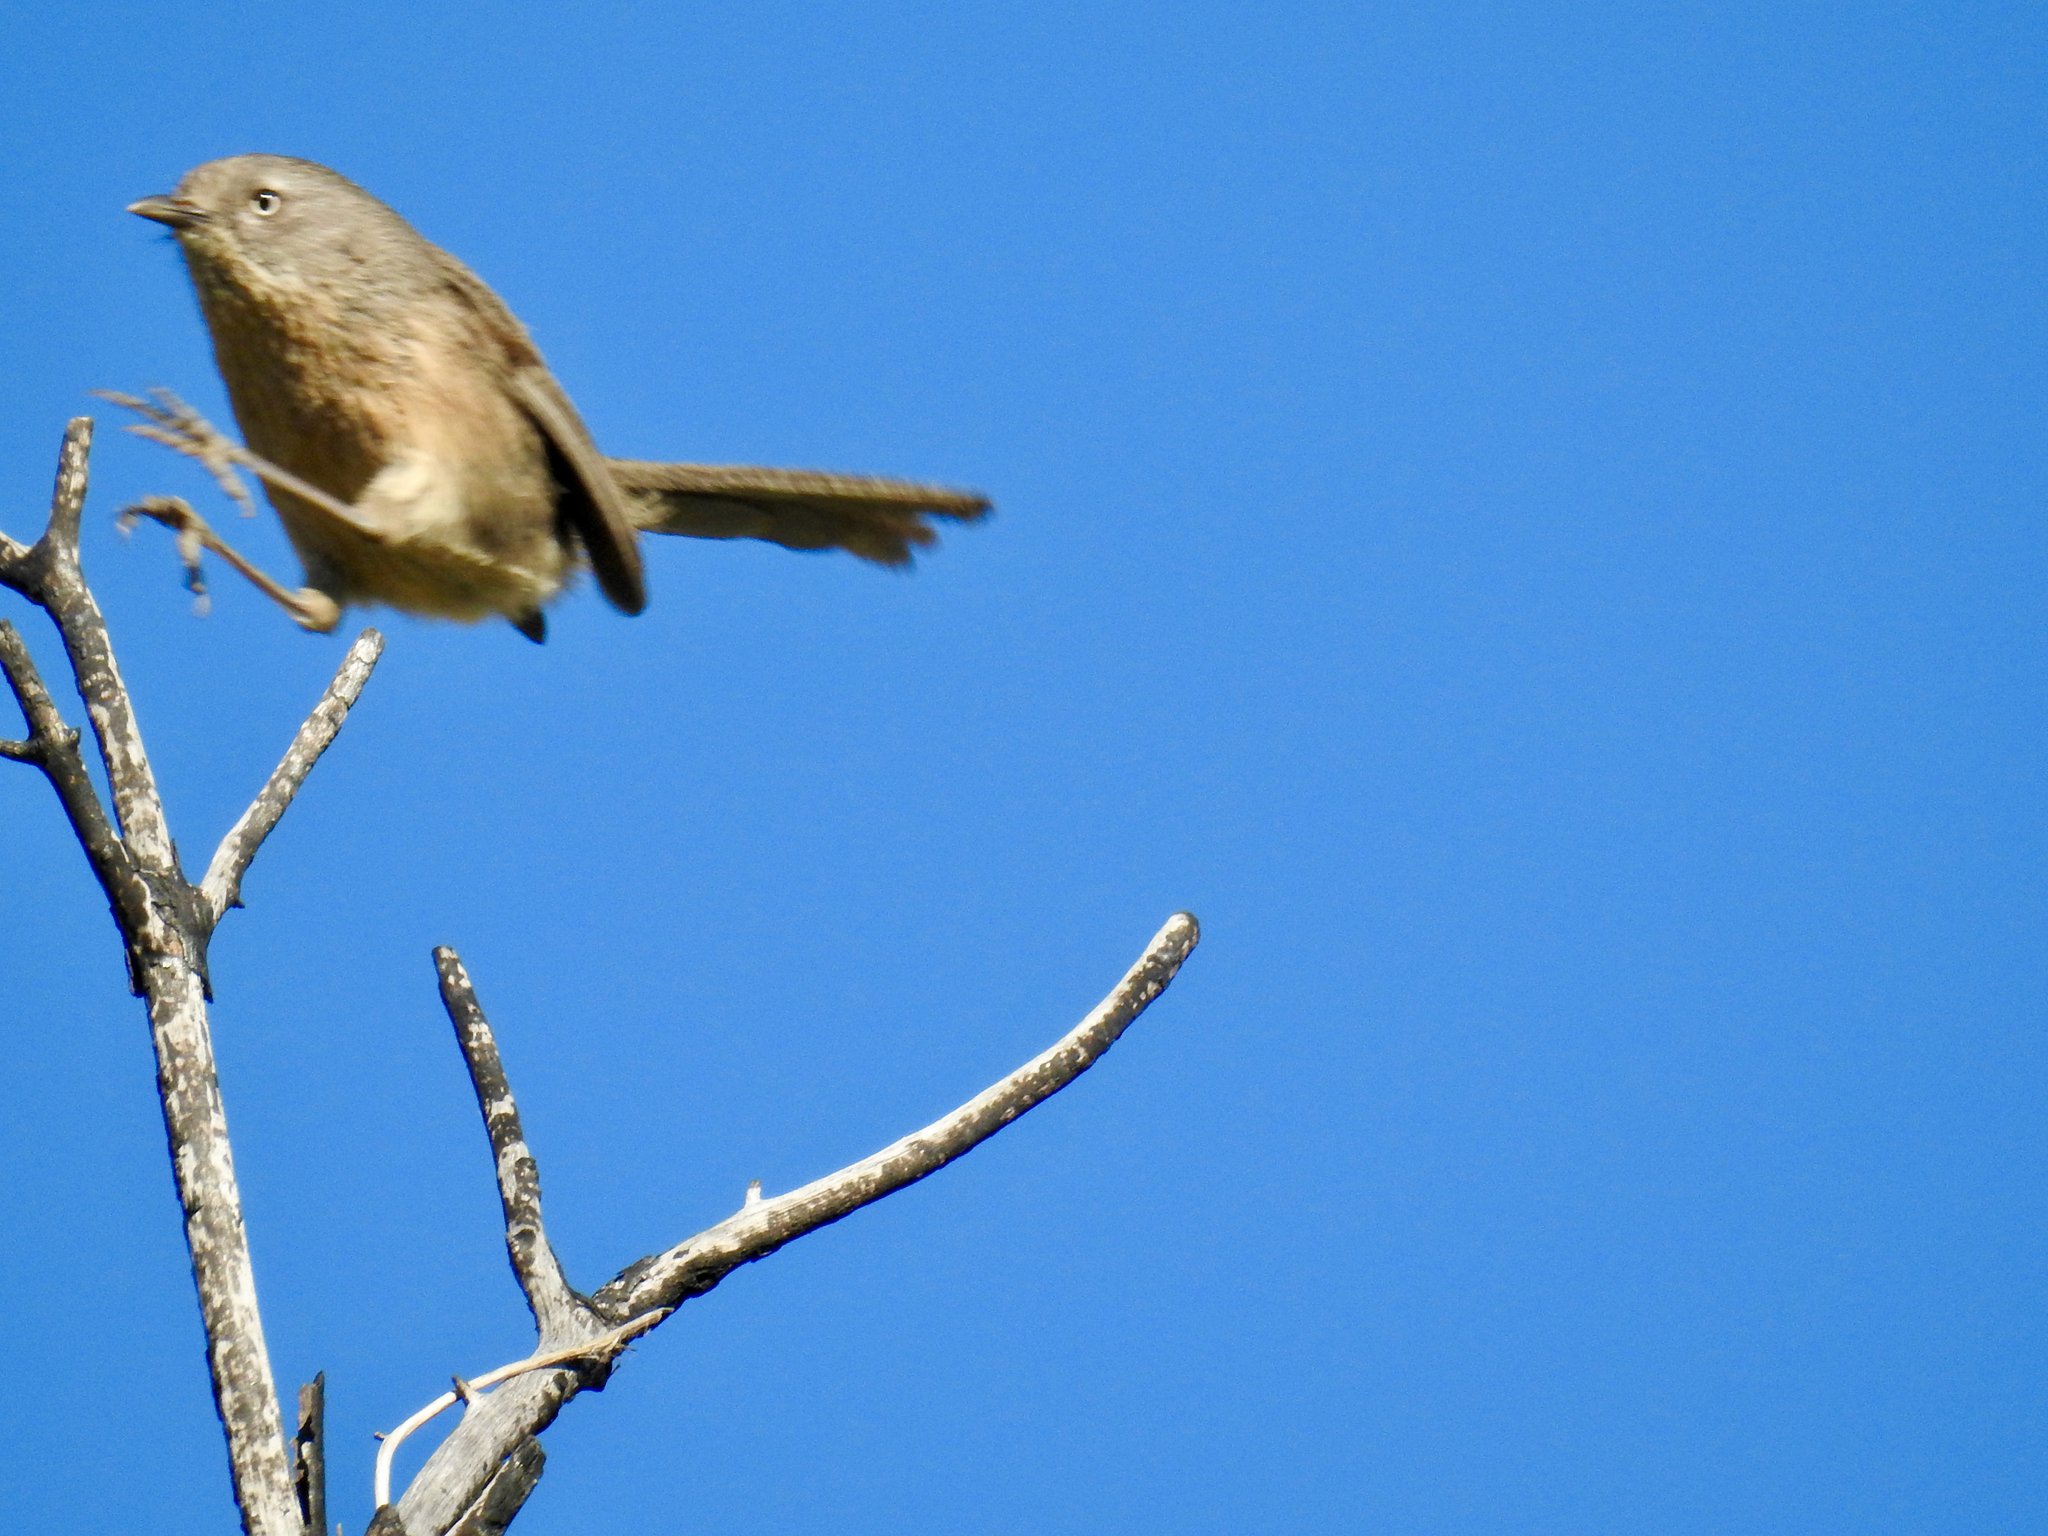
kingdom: Animalia
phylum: Chordata
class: Aves
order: Passeriformes
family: Sylviidae
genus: Chamaea
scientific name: Chamaea fasciata
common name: Wrentit
